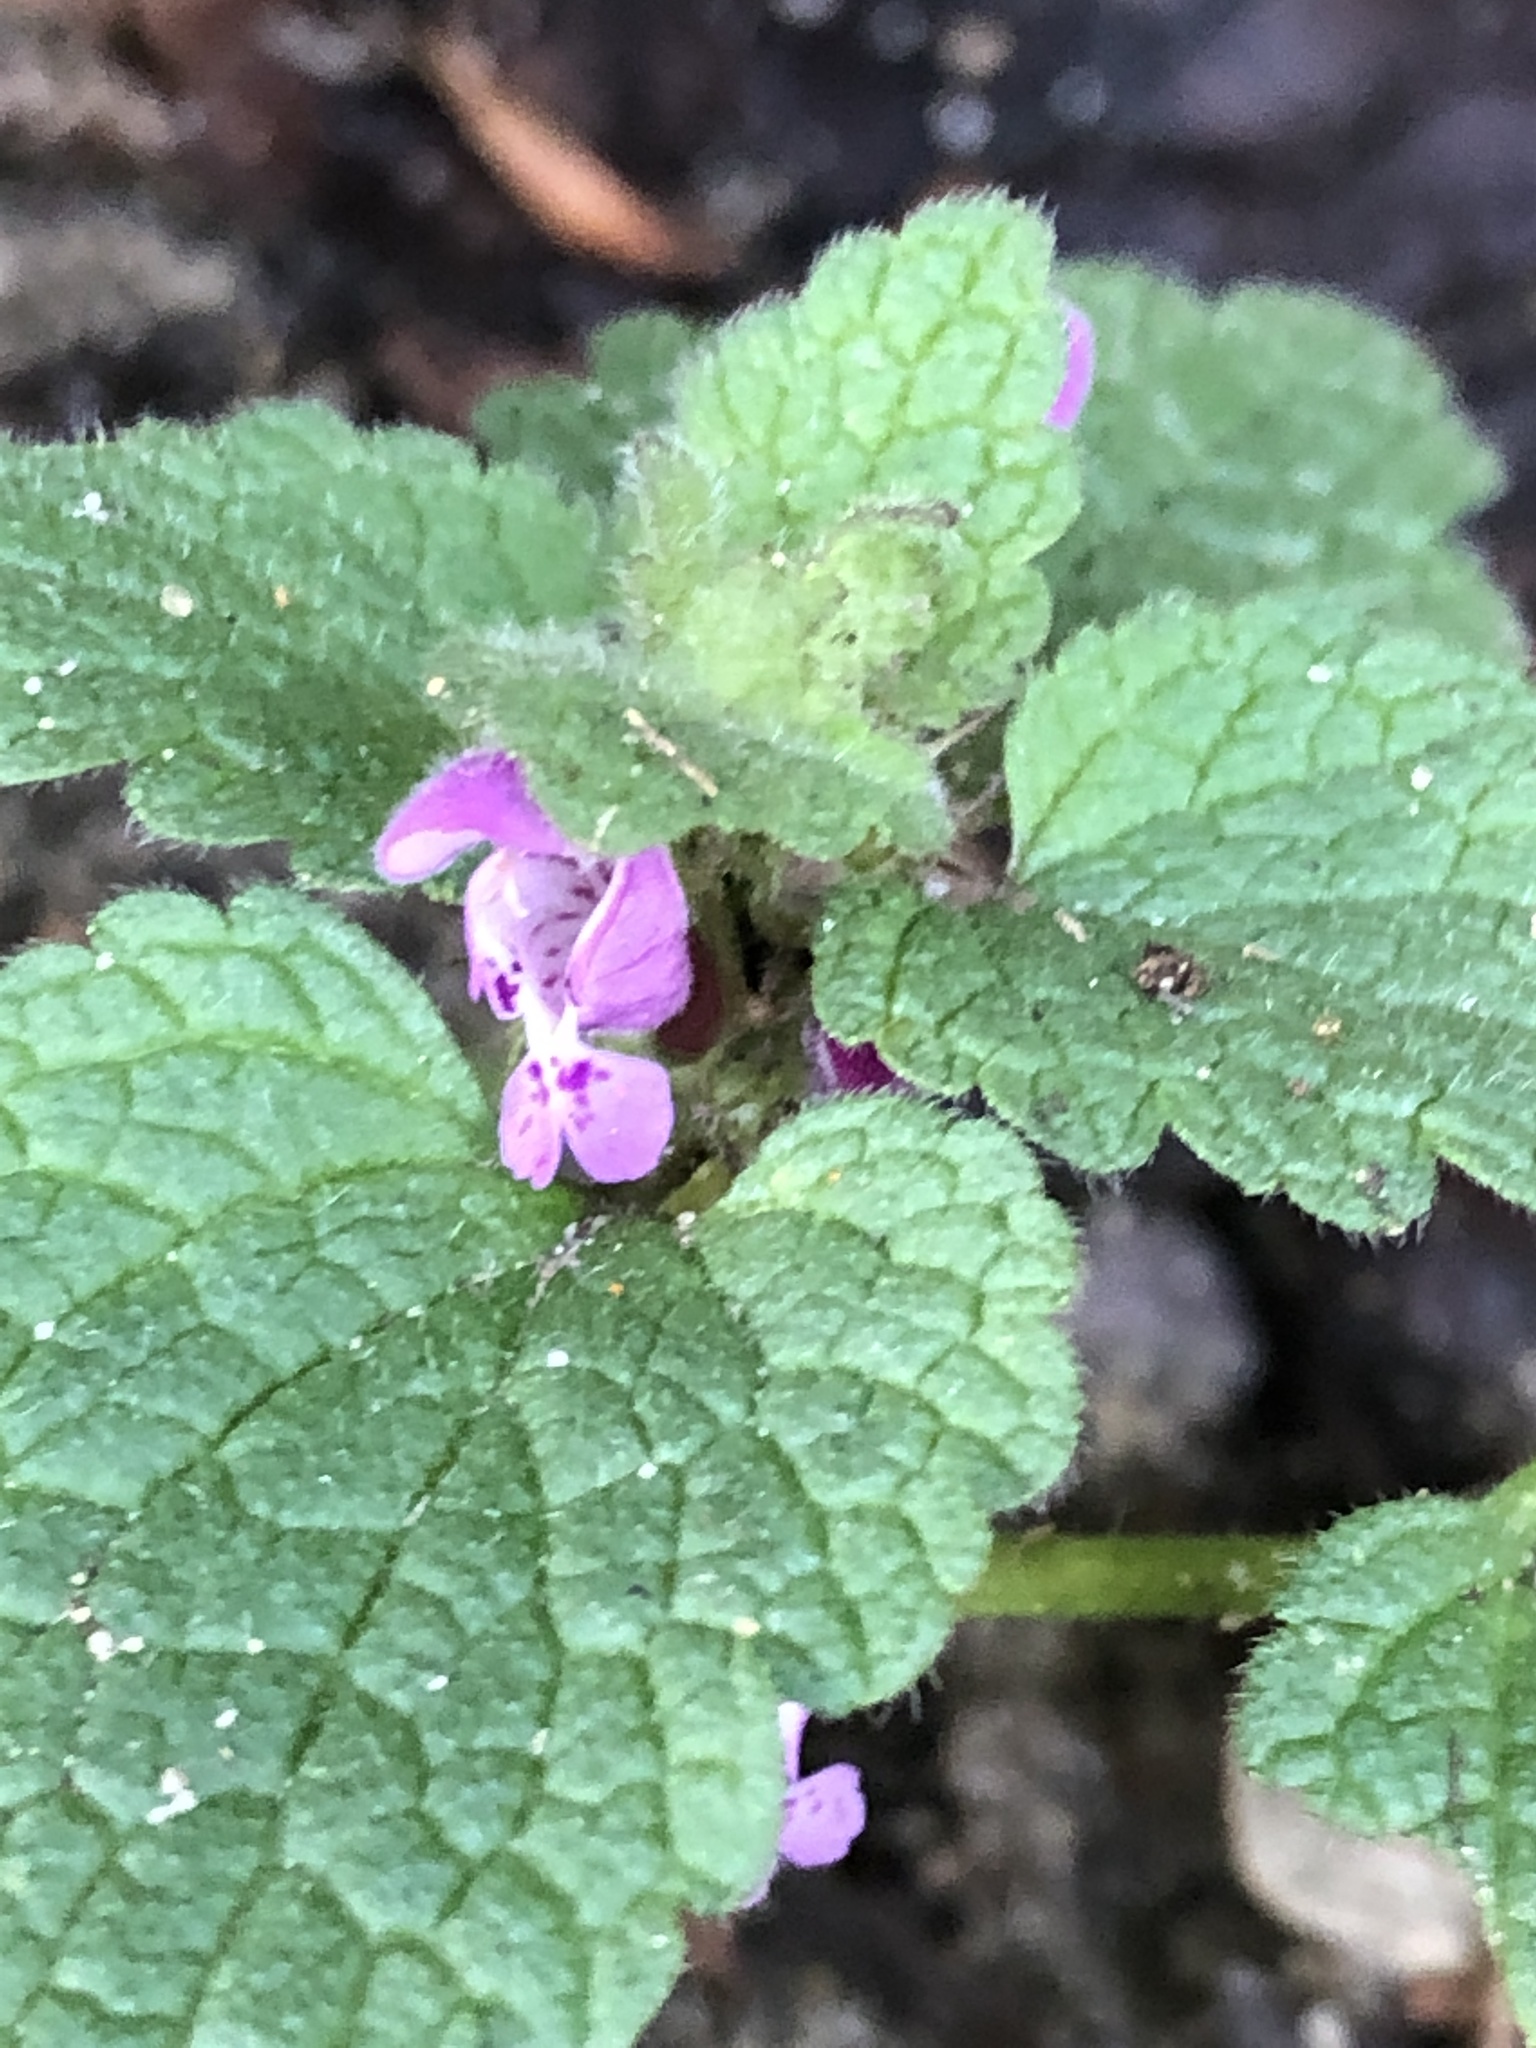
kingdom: Plantae
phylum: Tracheophyta
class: Magnoliopsida
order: Lamiales
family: Lamiaceae
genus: Lamium
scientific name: Lamium purpureum
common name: Red dead-nettle
